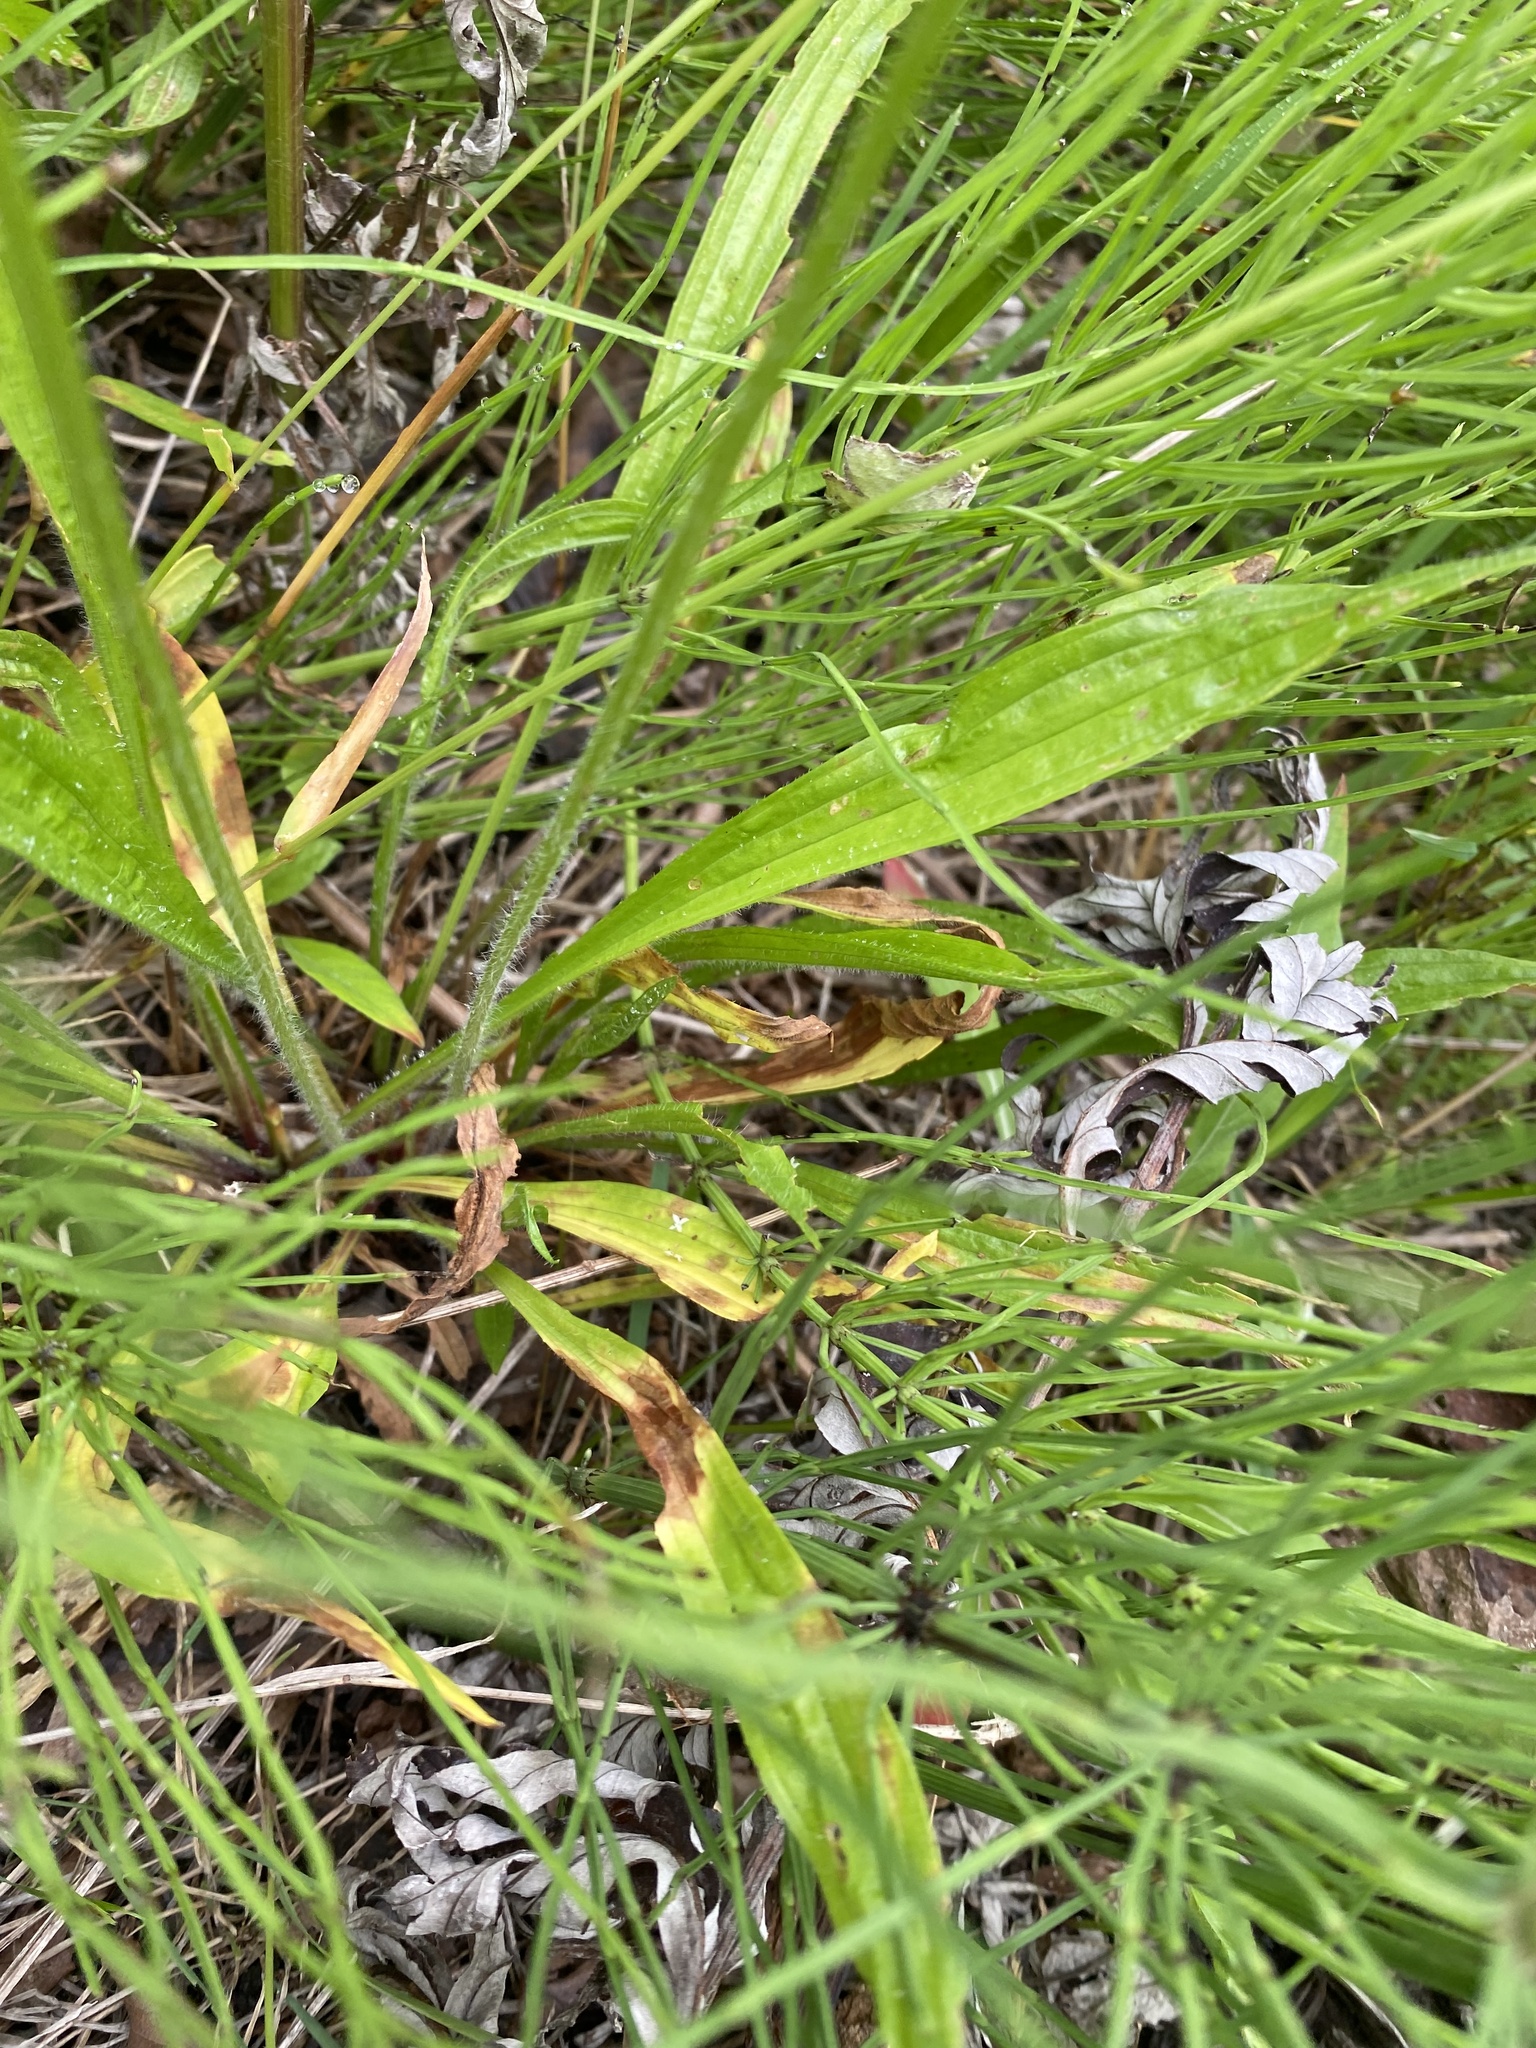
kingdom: Plantae
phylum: Tracheophyta
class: Magnoliopsida
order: Lamiales
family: Plantaginaceae
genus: Plantago
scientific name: Plantago lanceolata
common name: Ribwort plantain
